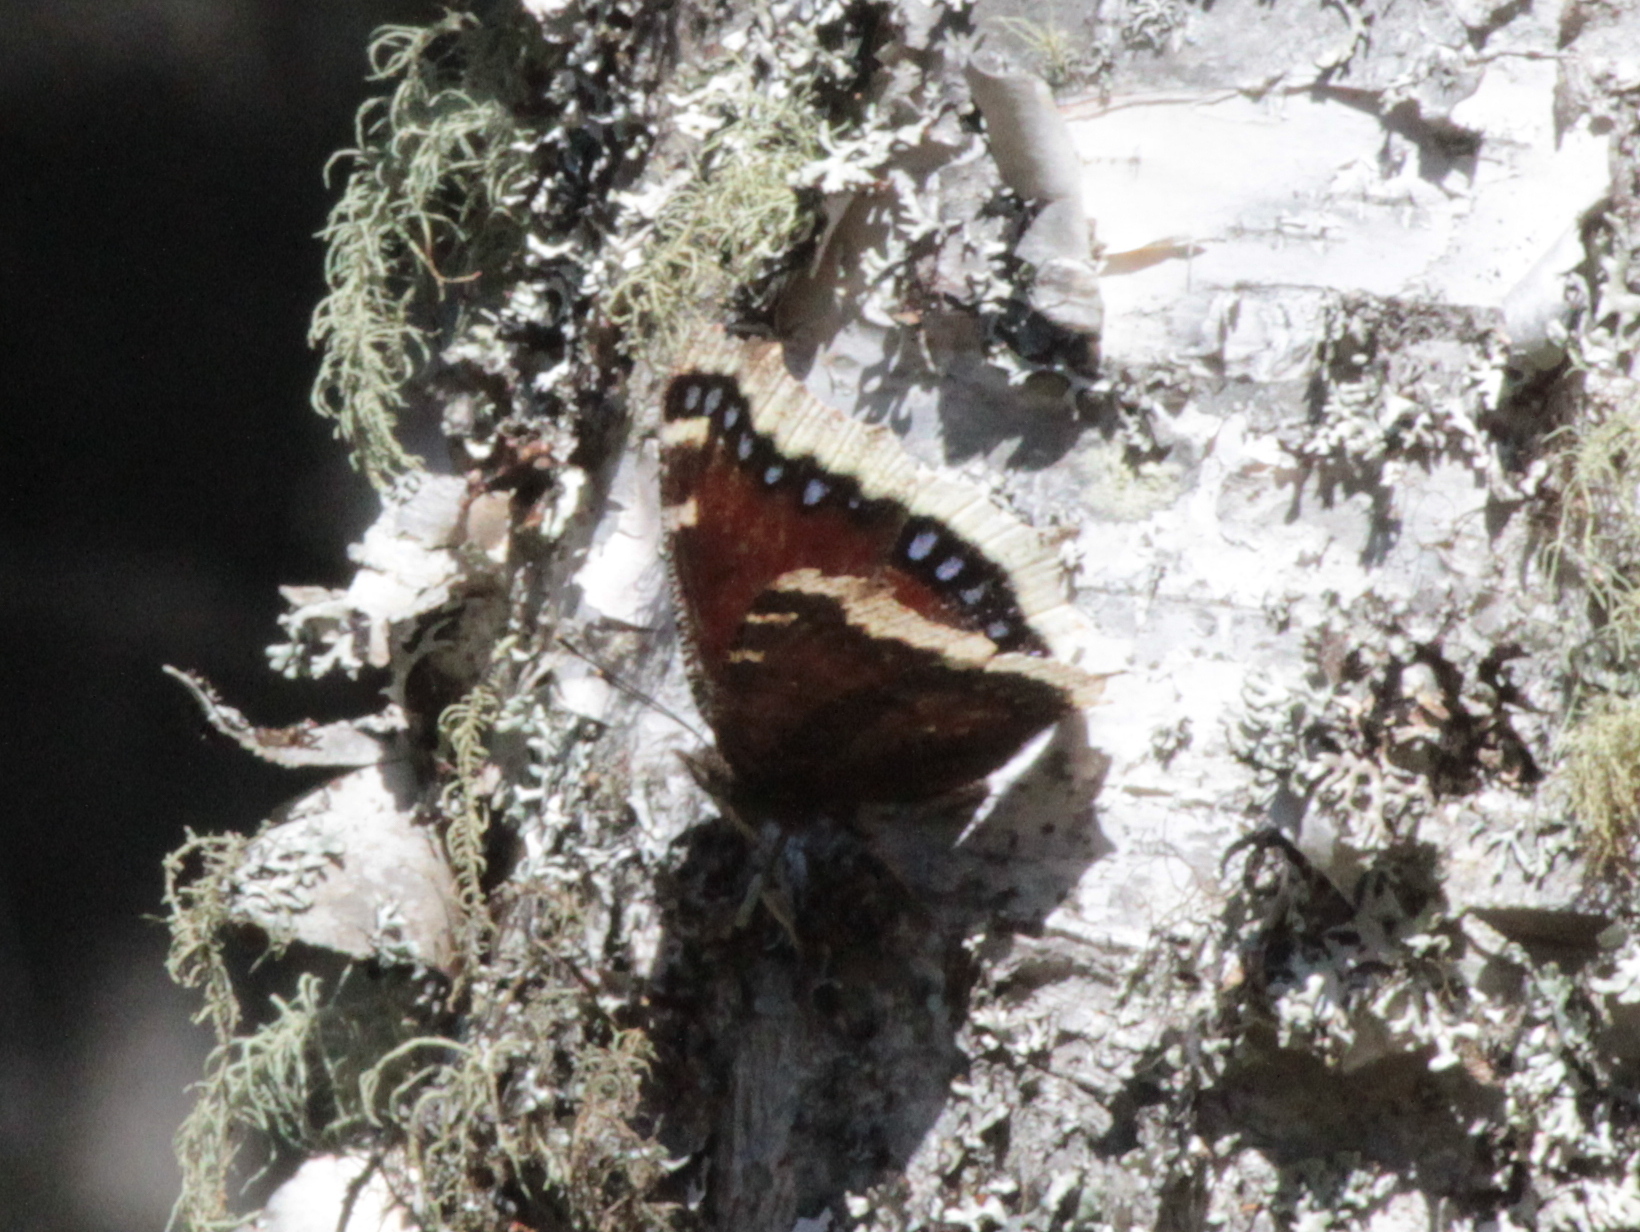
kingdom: Animalia
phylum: Arthropoda
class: Insecta
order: Lepidoptera
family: Nymphalidae
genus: Nymphalis
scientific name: Nymphalis antiopa
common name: Camberwell beauty
